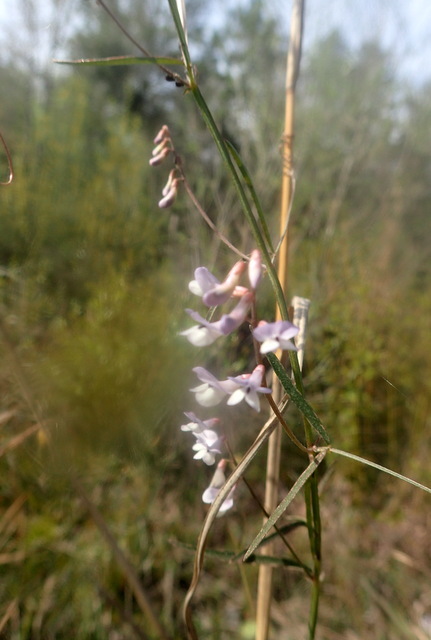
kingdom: Plantae
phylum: Tracheophyta
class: Magnoliopsida
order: Fabales
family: Fabaceae
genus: Vicia
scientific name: Vicia acutifolia
